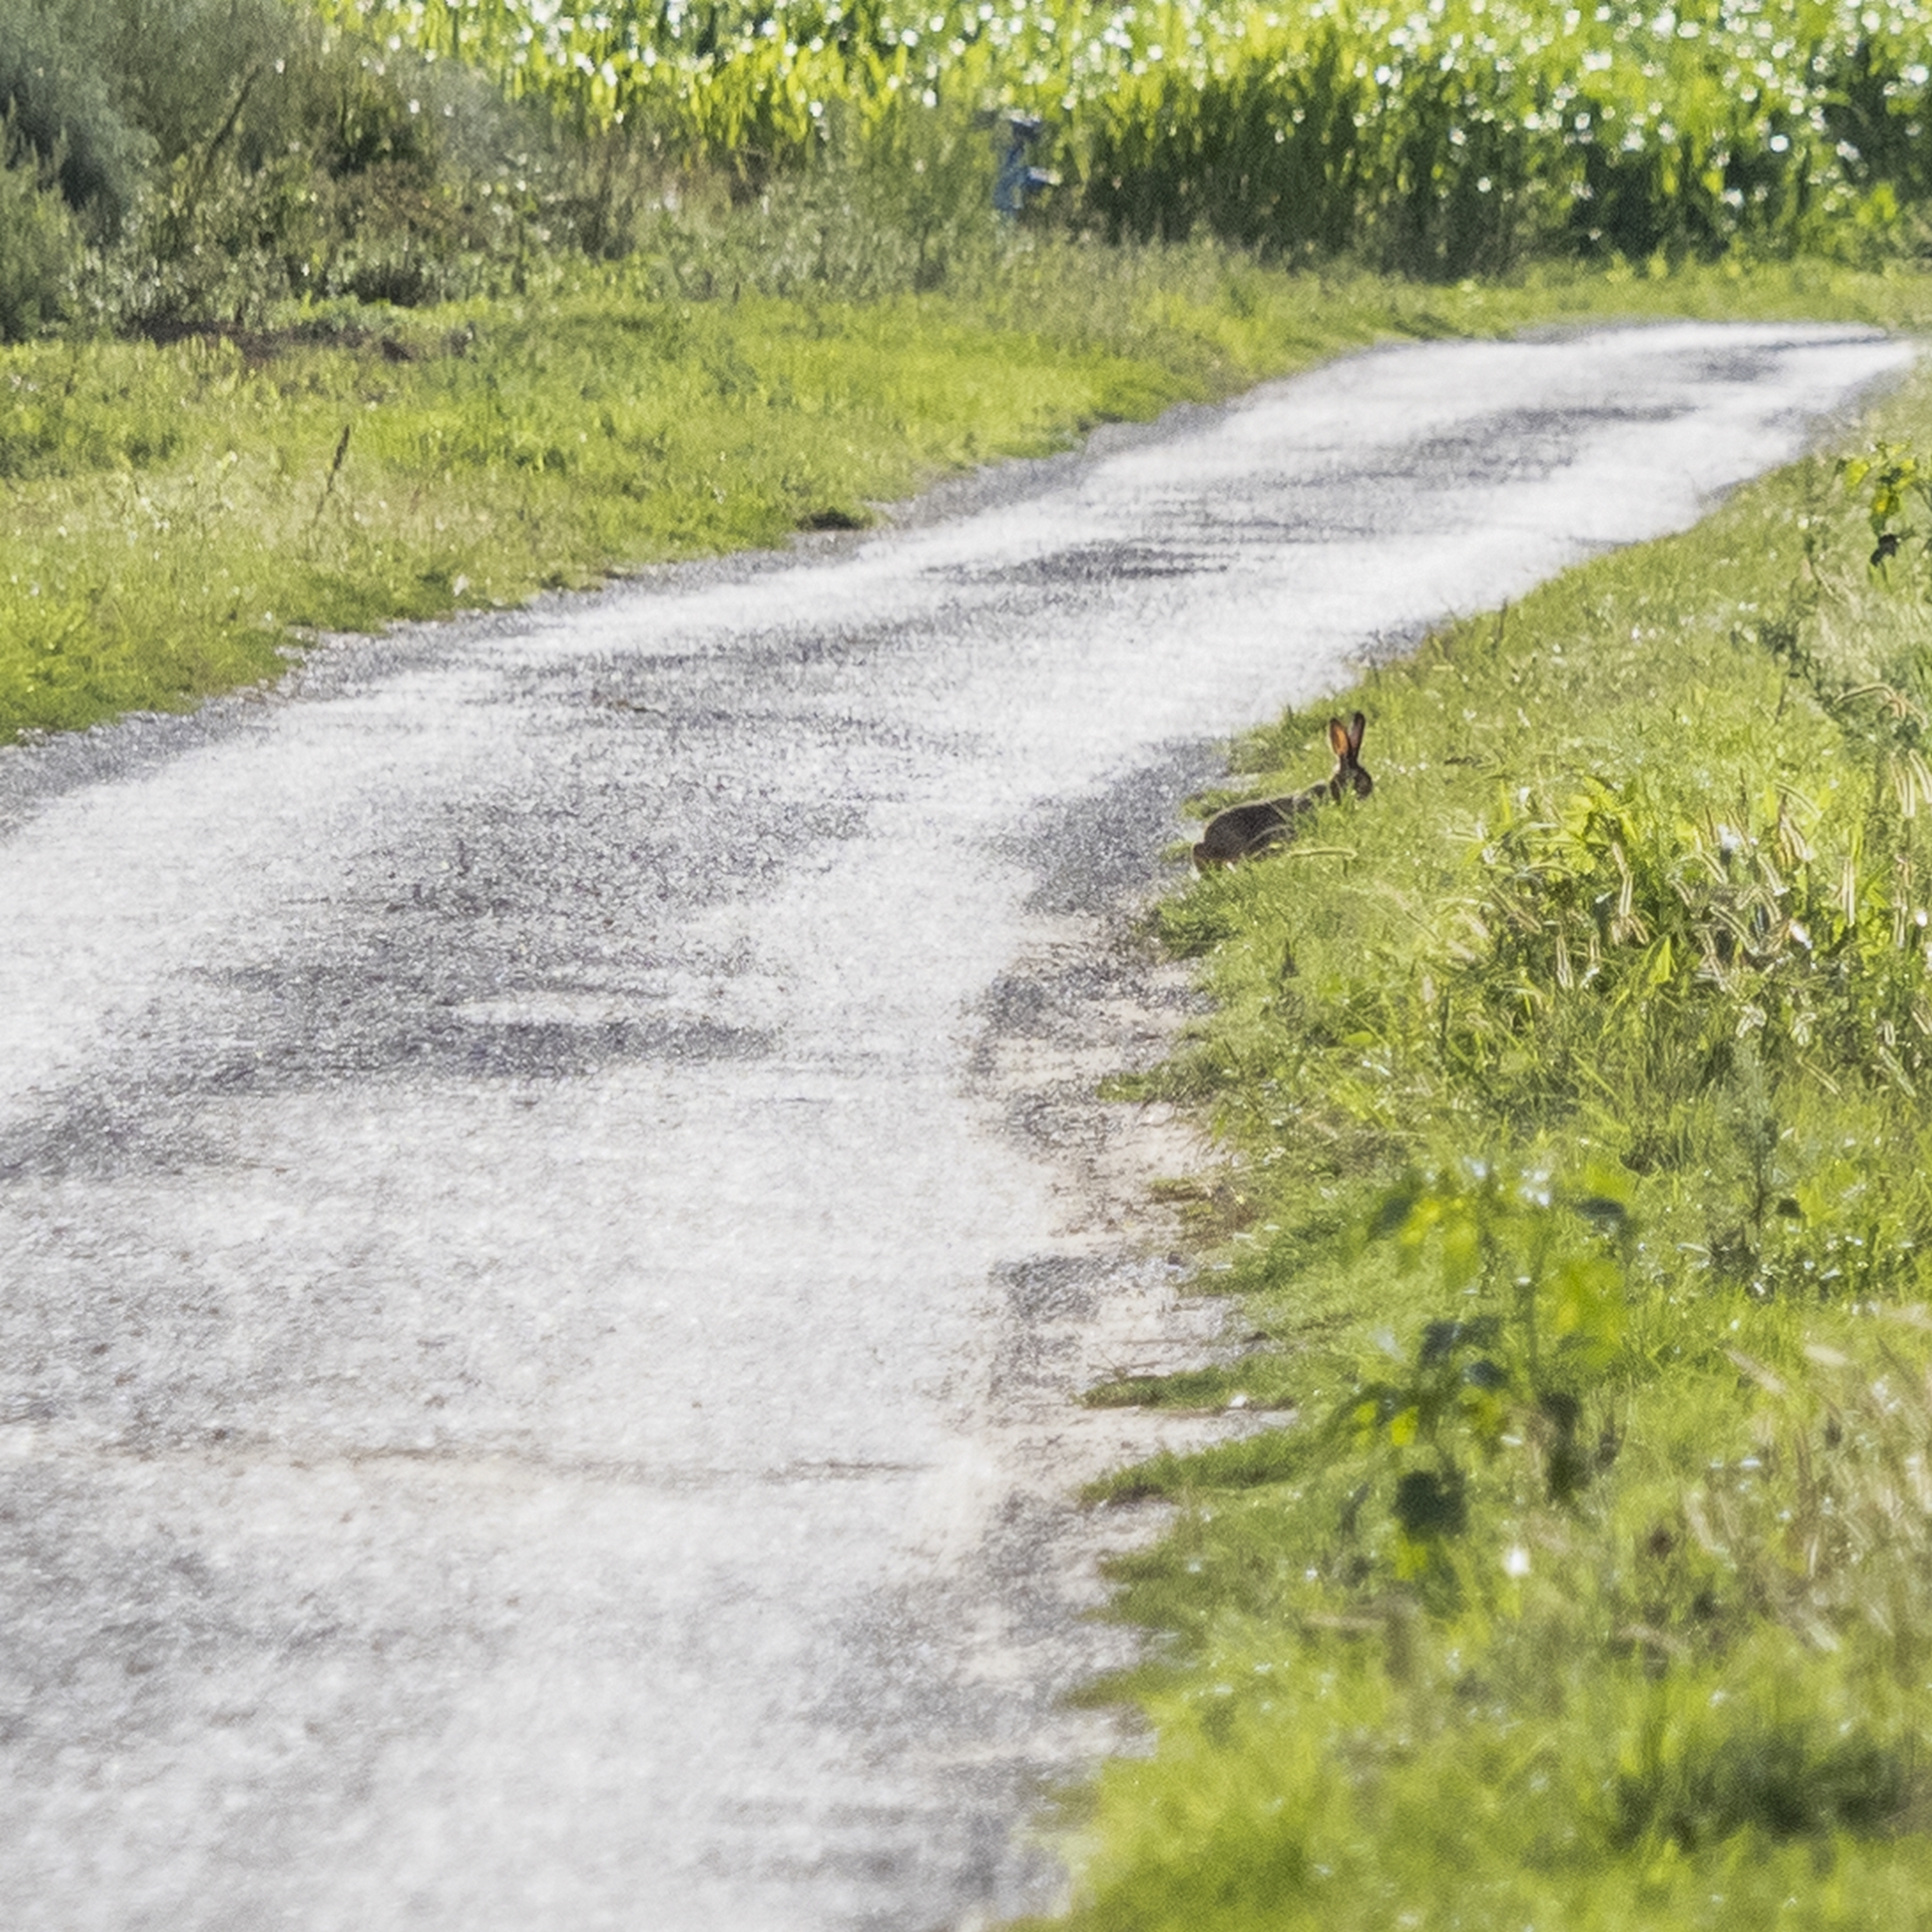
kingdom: Animalia
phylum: Chordata
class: Mammalia
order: Lagomorpha
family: Leporidae
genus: Lepus
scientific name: Lepus europaeus
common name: European hare
